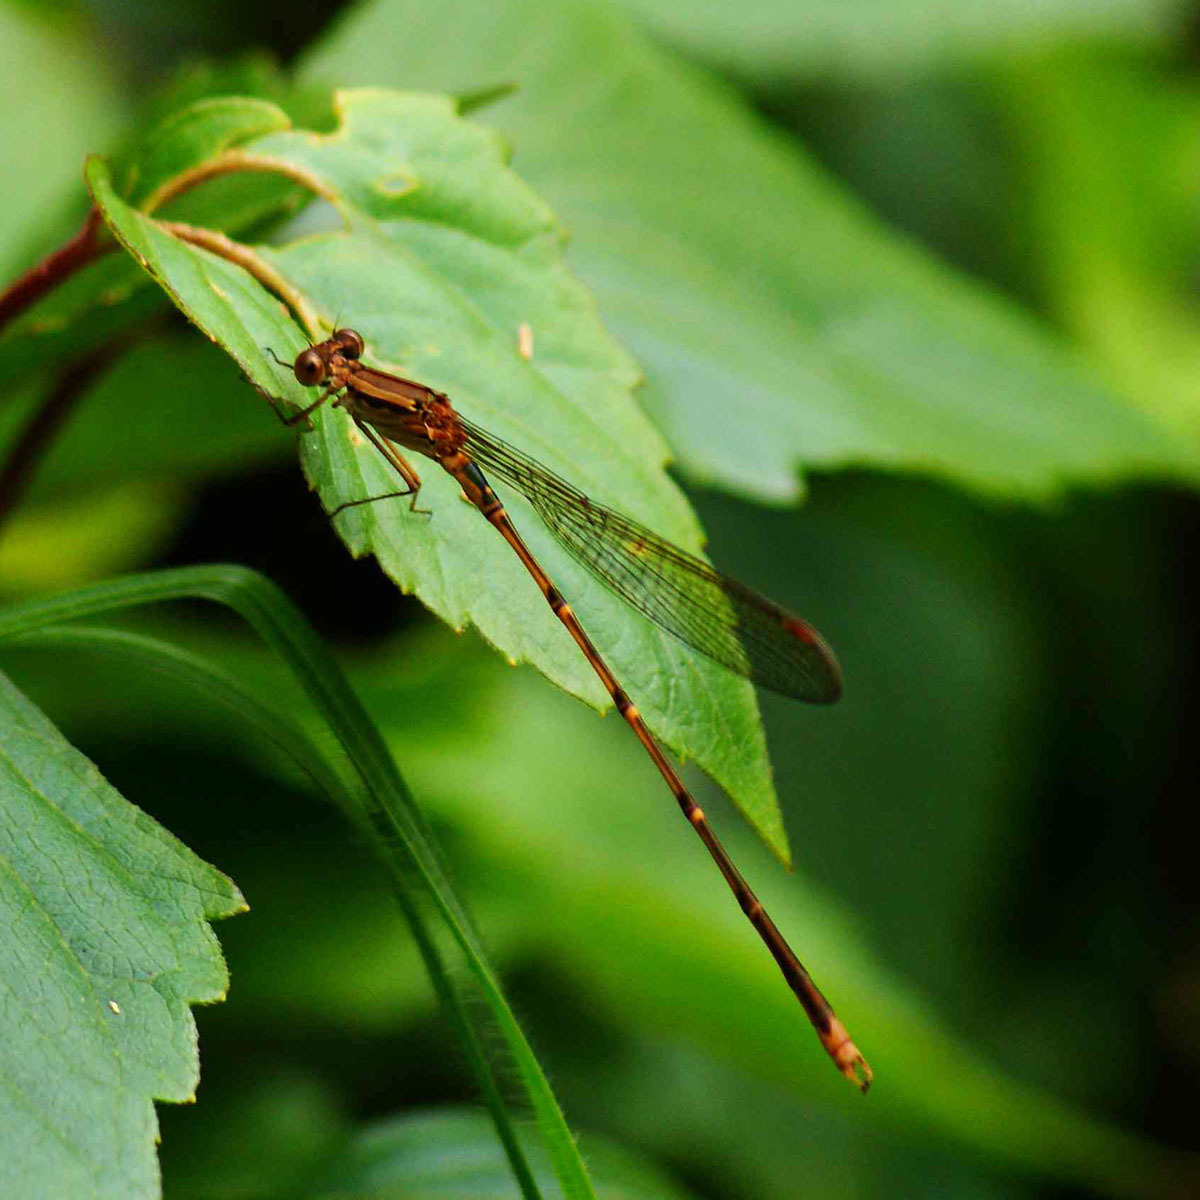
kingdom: Animalia
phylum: Arthropoda
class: Insecta
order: Odonata
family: Lestidae
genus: Indolestes
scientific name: Indolestes gracilis
